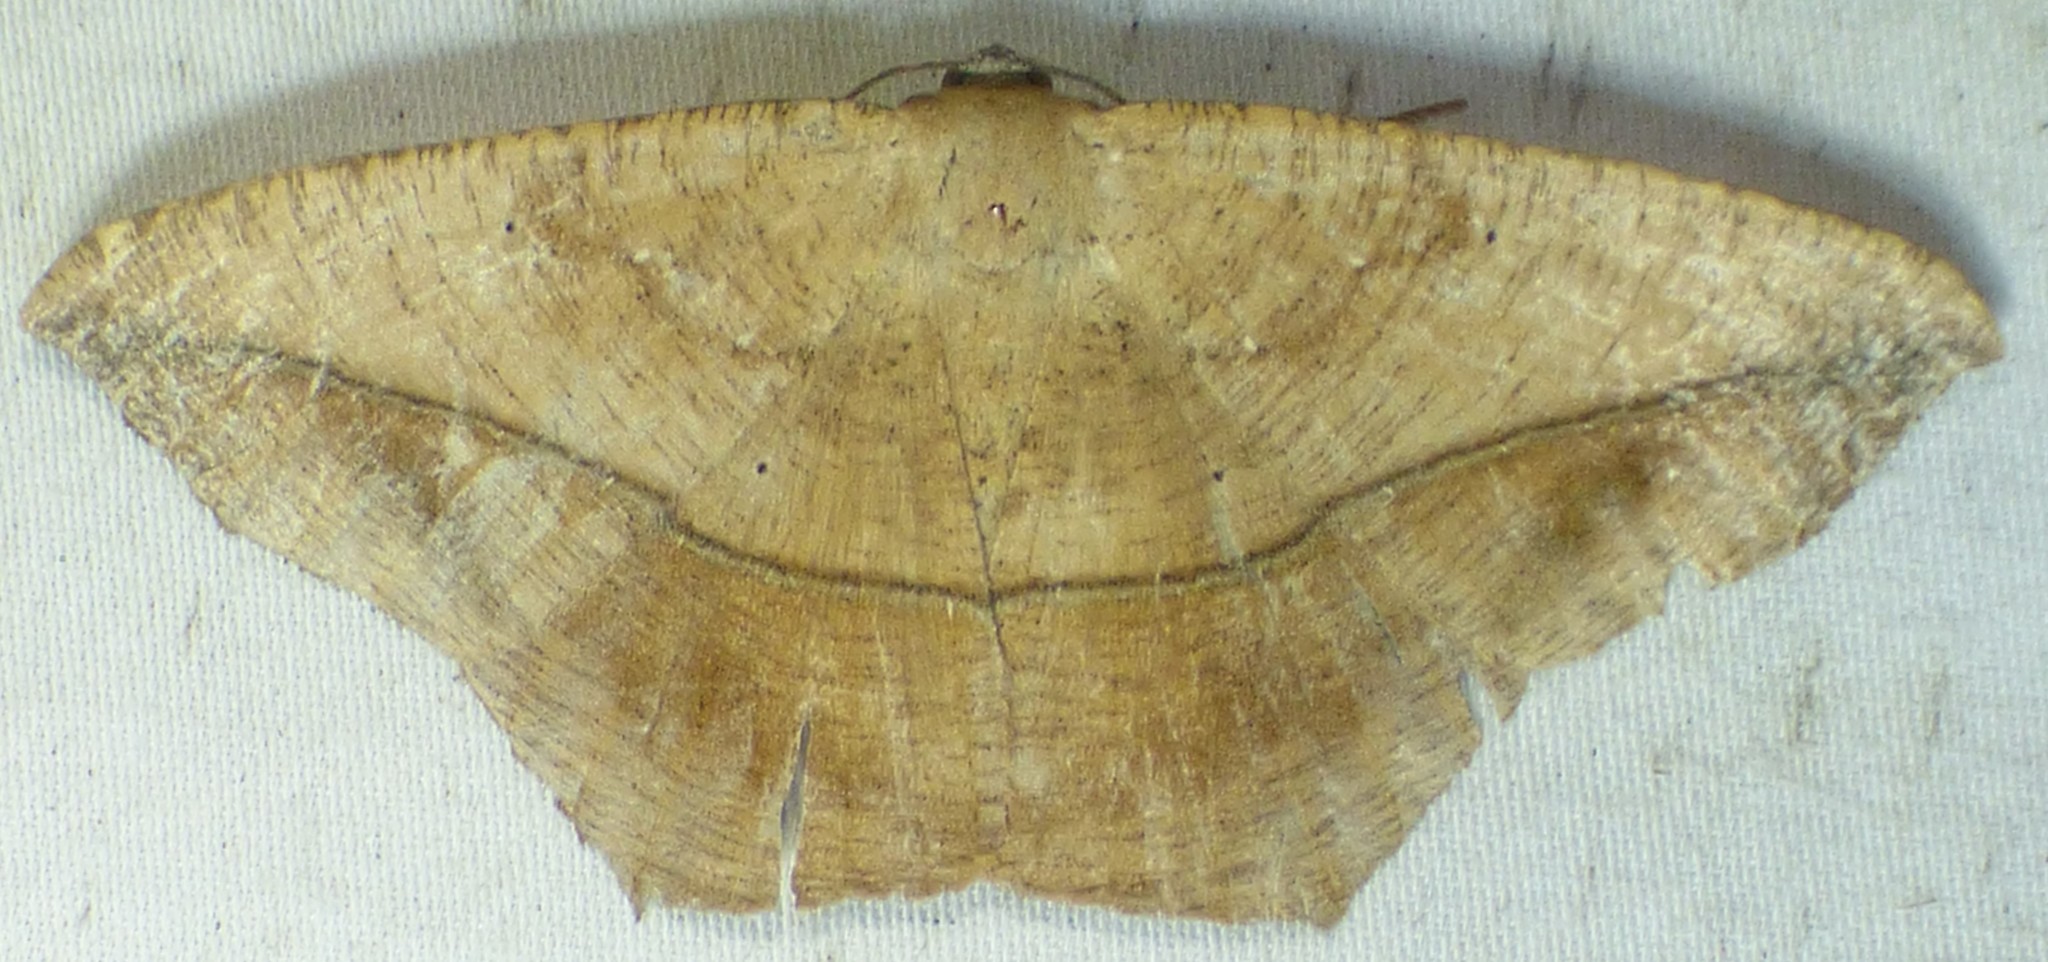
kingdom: Animalia
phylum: Arthropoda
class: Insecta
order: Lepidoptera
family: Geometridae
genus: Prochoerodes
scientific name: Prochoerodes lineola
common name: Large maple spanworm
